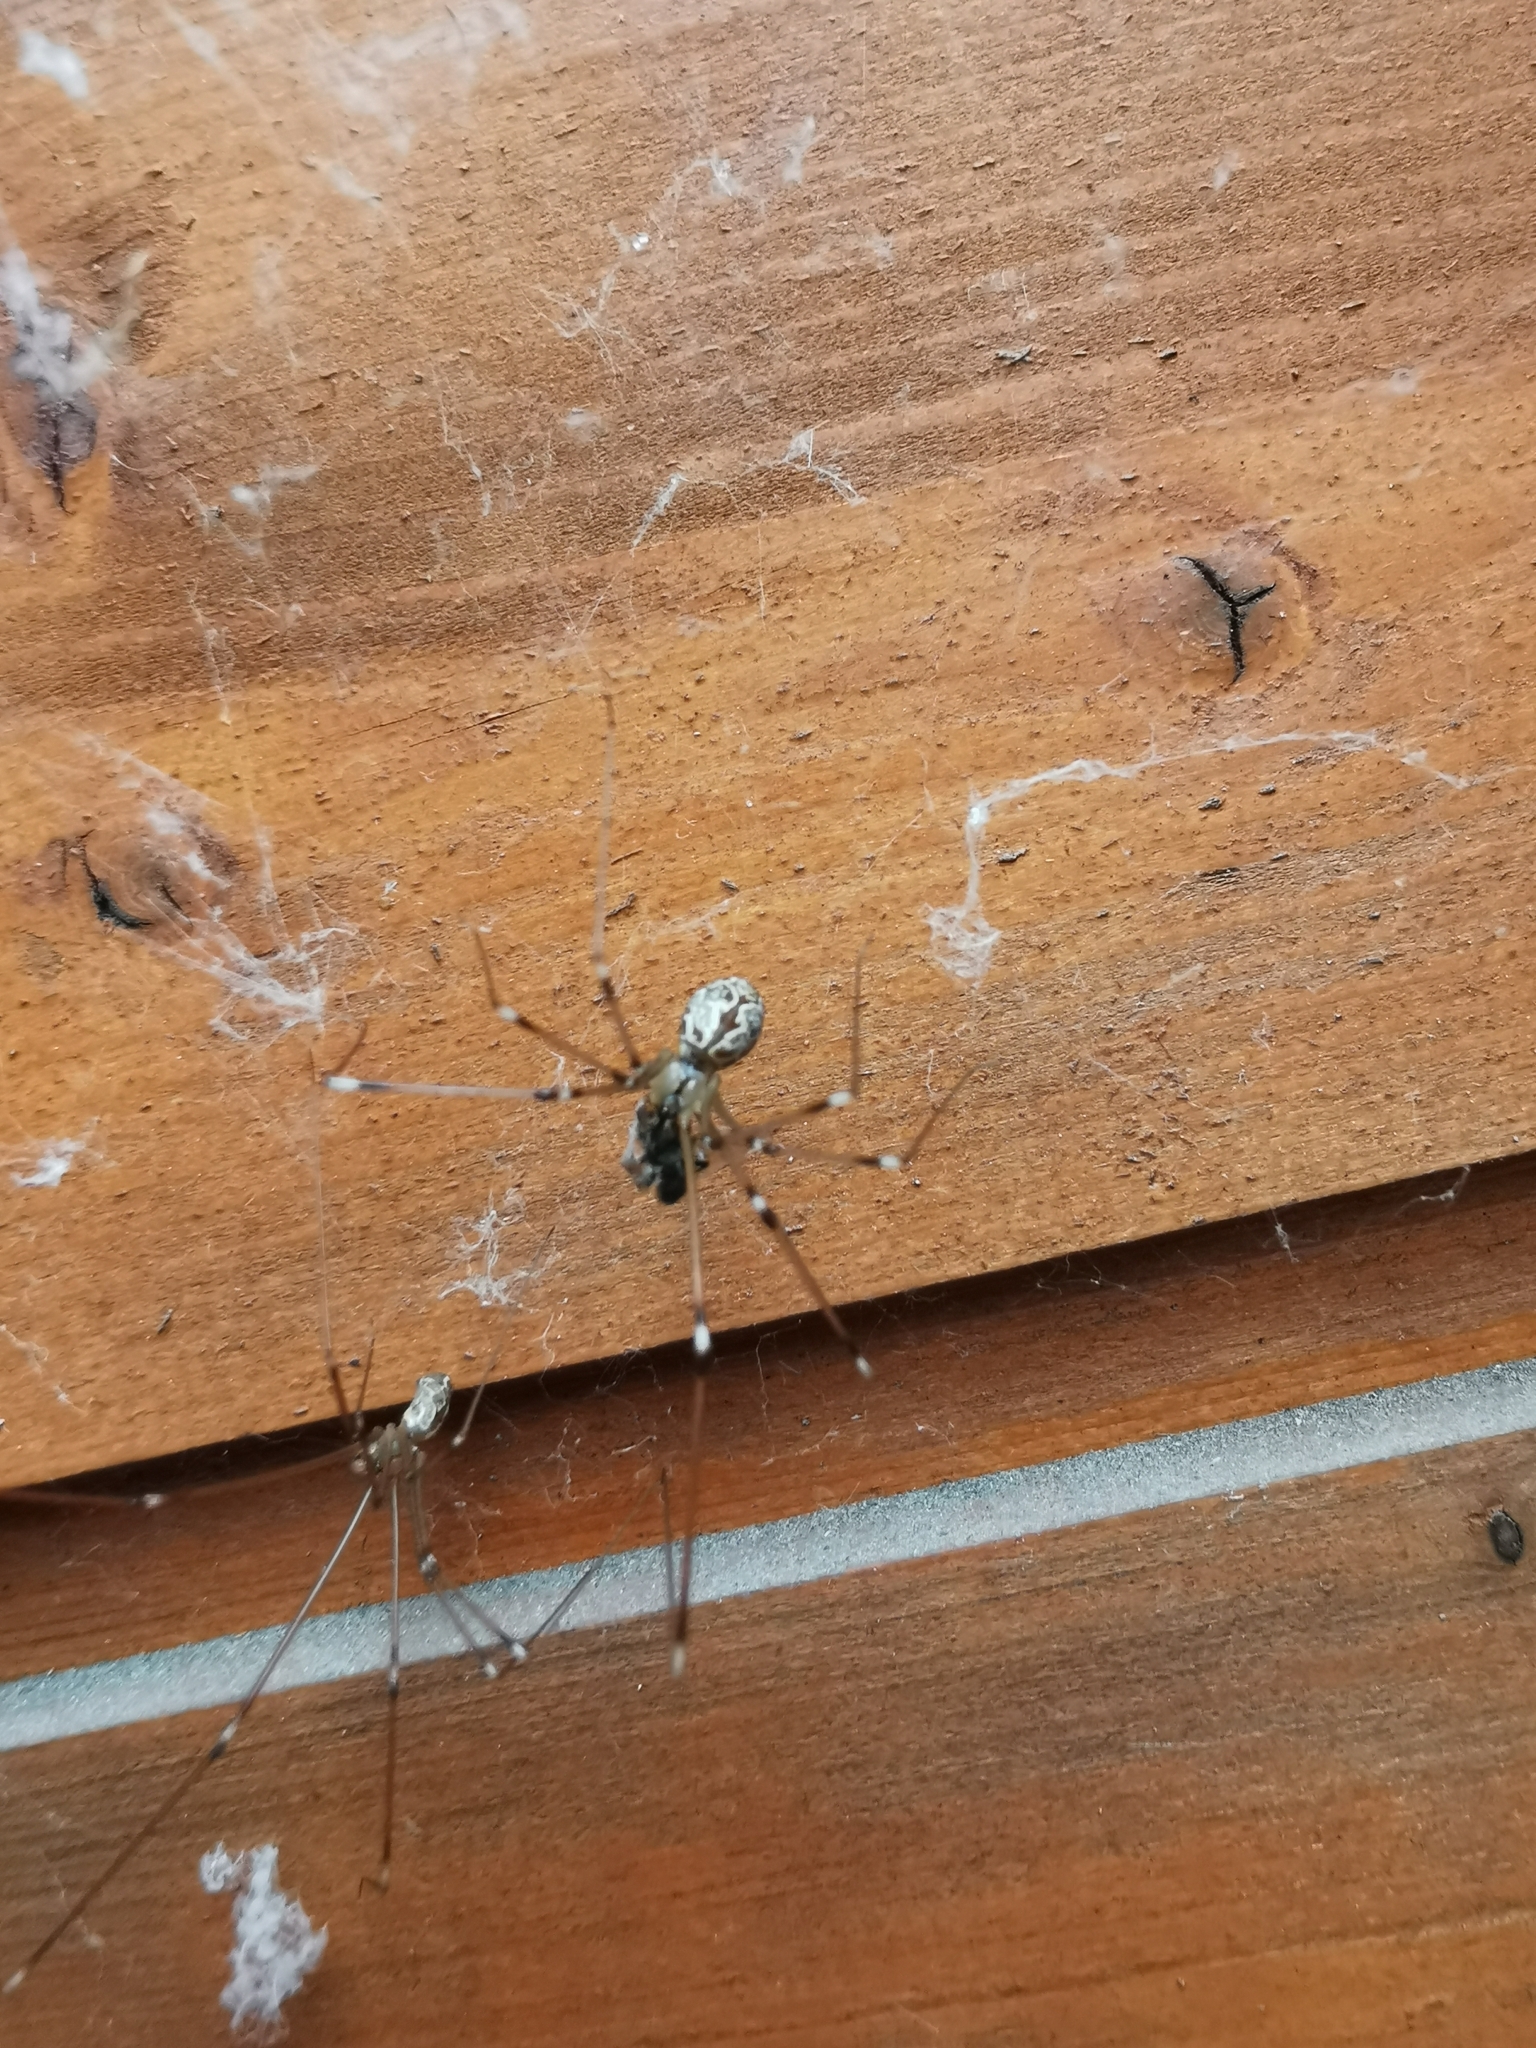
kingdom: Animalia
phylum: Arthropoda
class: Arachnida
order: Araneae
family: Pholcidae
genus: Holocnemus
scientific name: Holocnemus pluchei
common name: Marbled cellar spider
